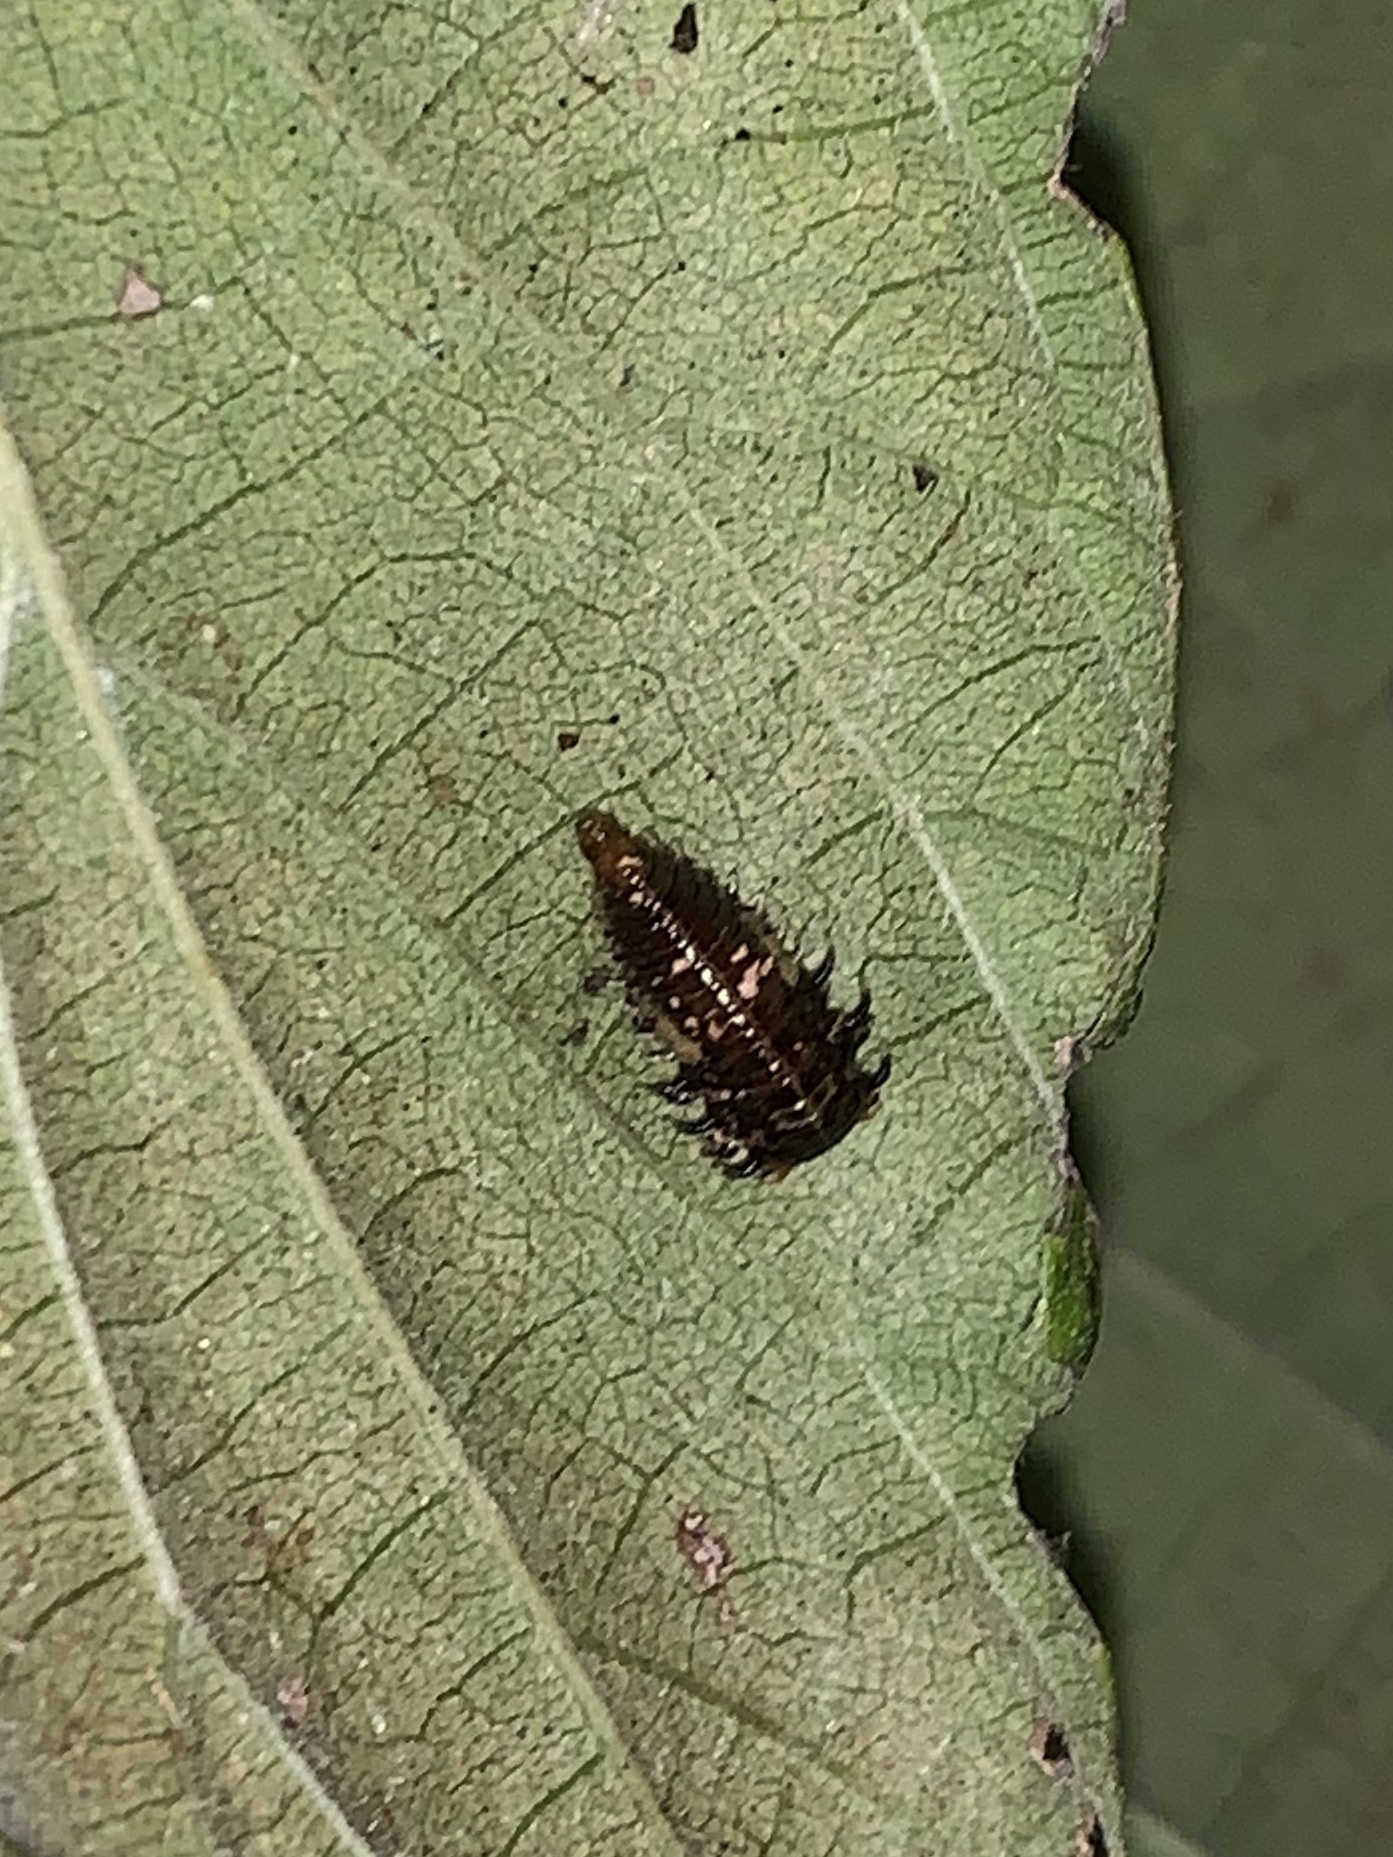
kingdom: Animalia
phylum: Arthropoda
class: Insecta
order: Coleoptera
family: Chrysomelidae
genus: Eurypepla
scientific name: Eurypepla calochroma
